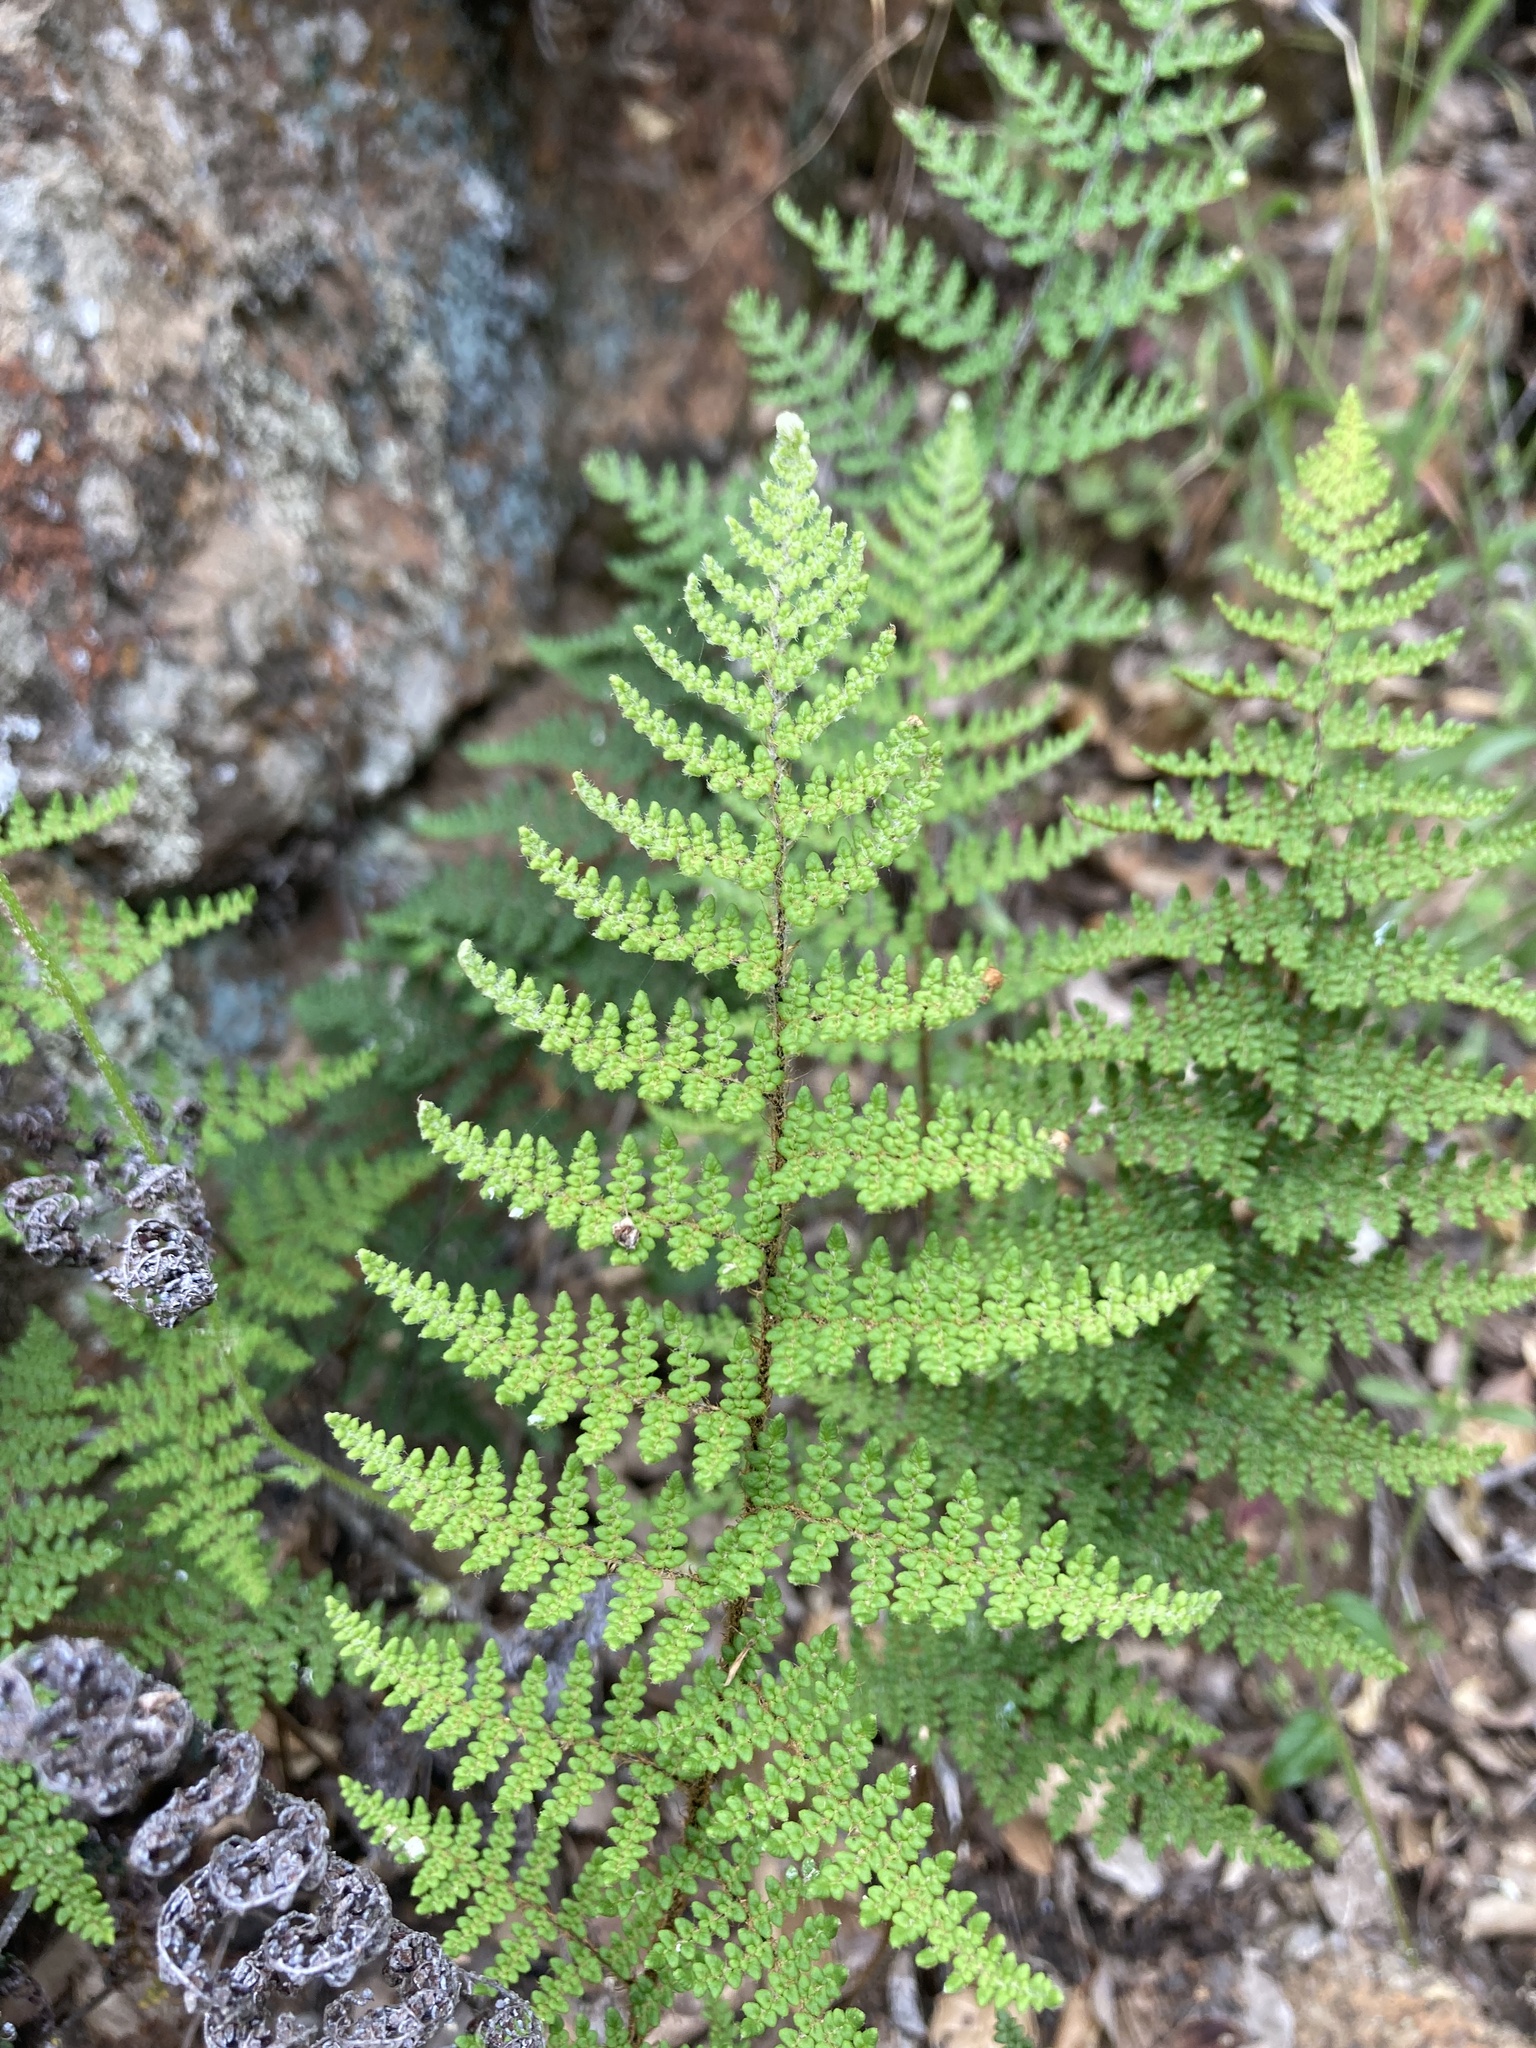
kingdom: Plantae
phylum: Tracheophyta
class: Polypodiopsida
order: Polypodiales
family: Pteridaceae
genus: Myriopteris
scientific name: Myriopteris clevelandii
